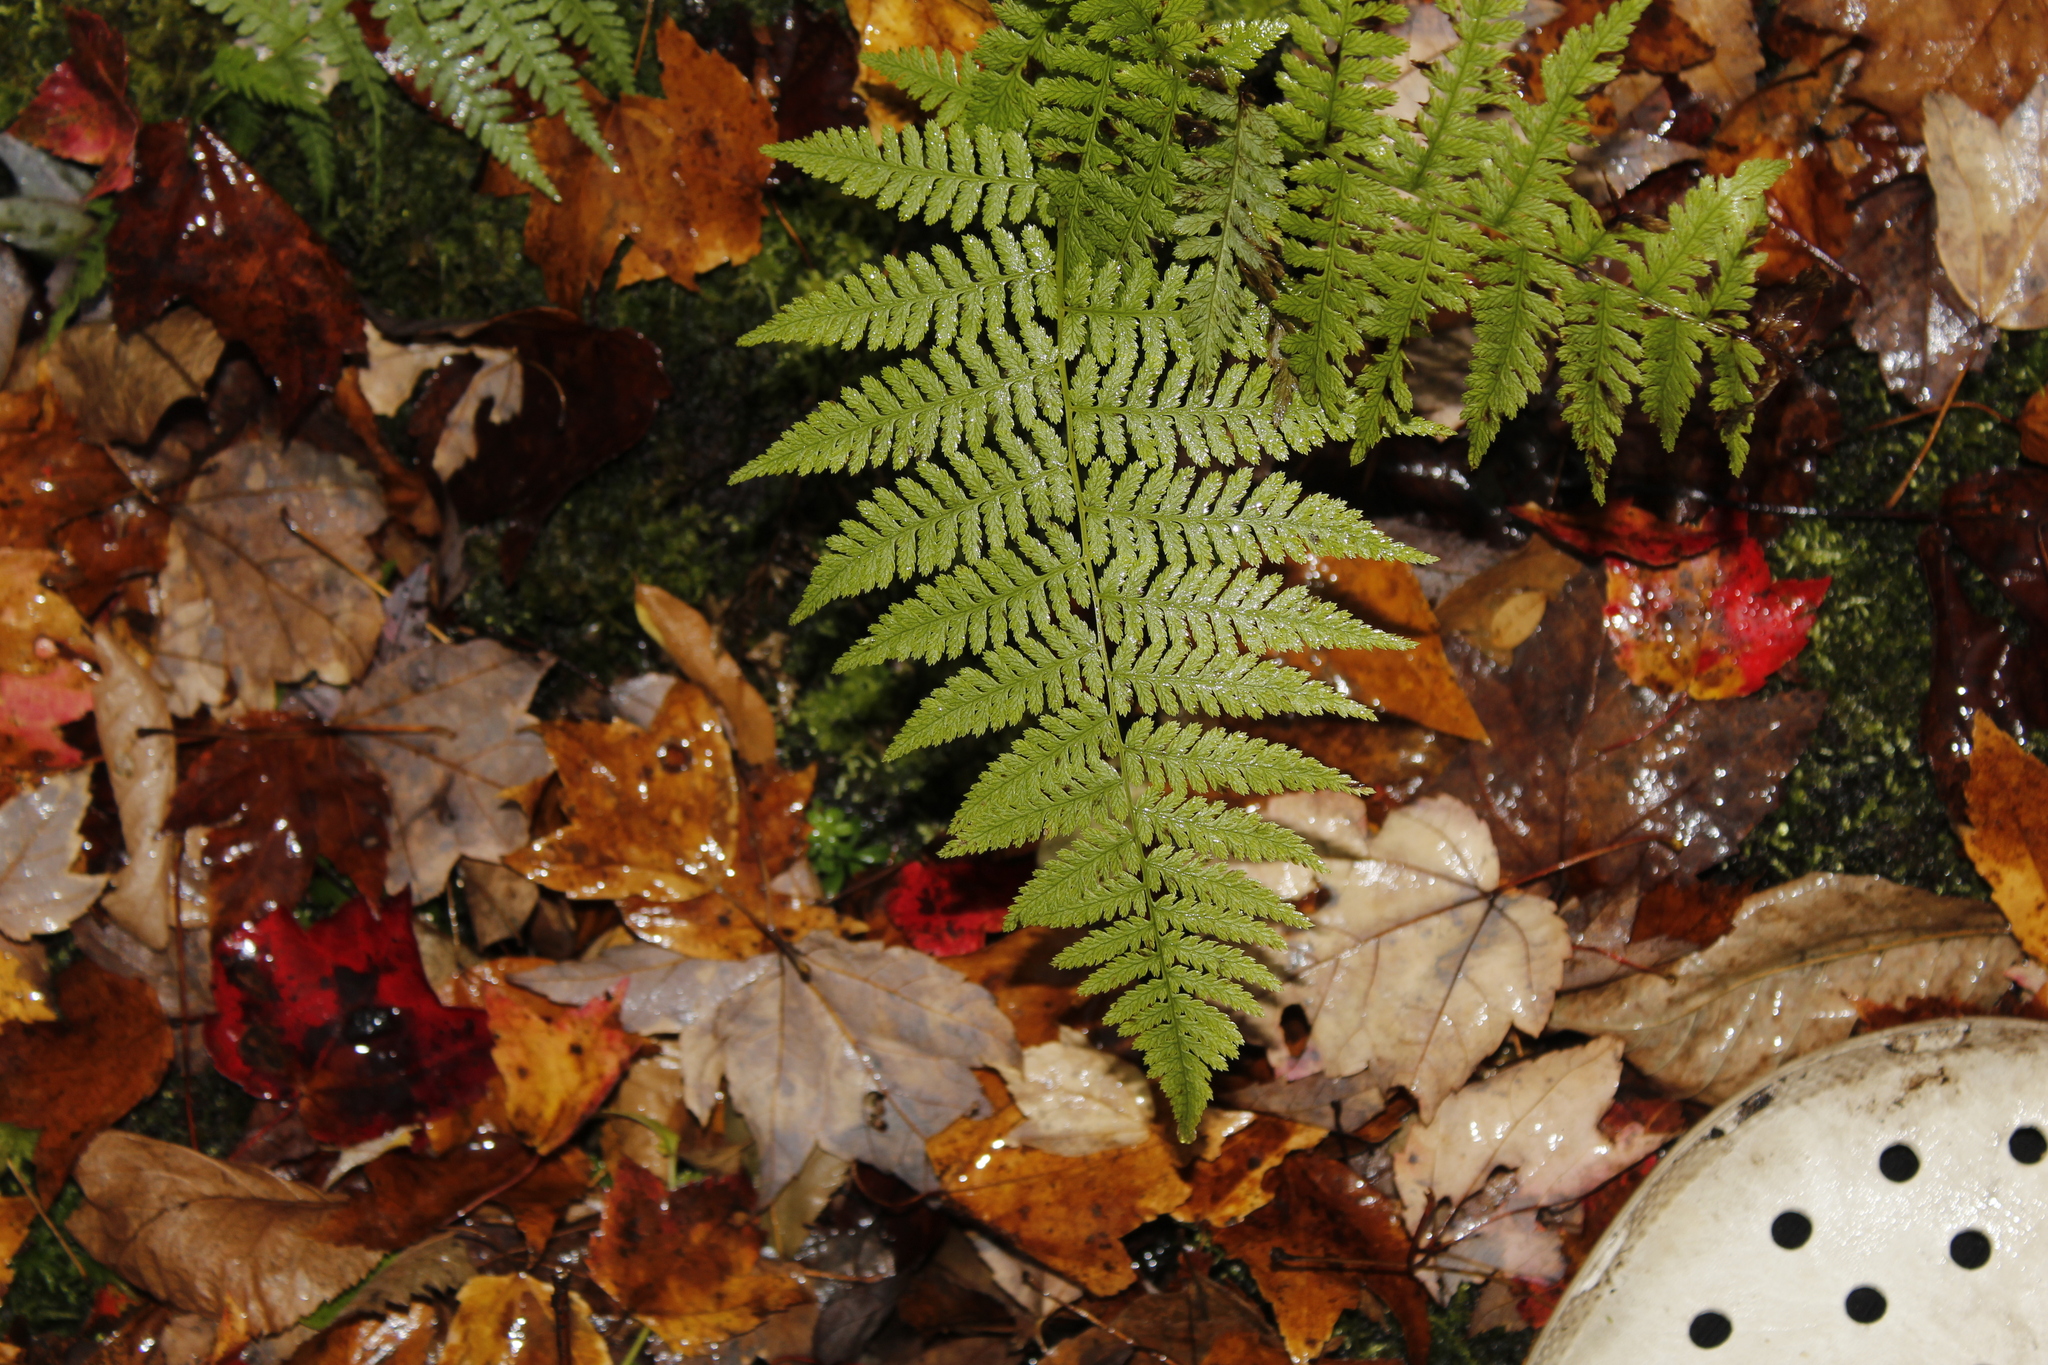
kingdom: Plantae
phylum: Tracheophyta
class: Polypodiopsida
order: Polypodiales
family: Athyriaceae
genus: Athyrium
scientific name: Athyrium angustum
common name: Northern lady fern
